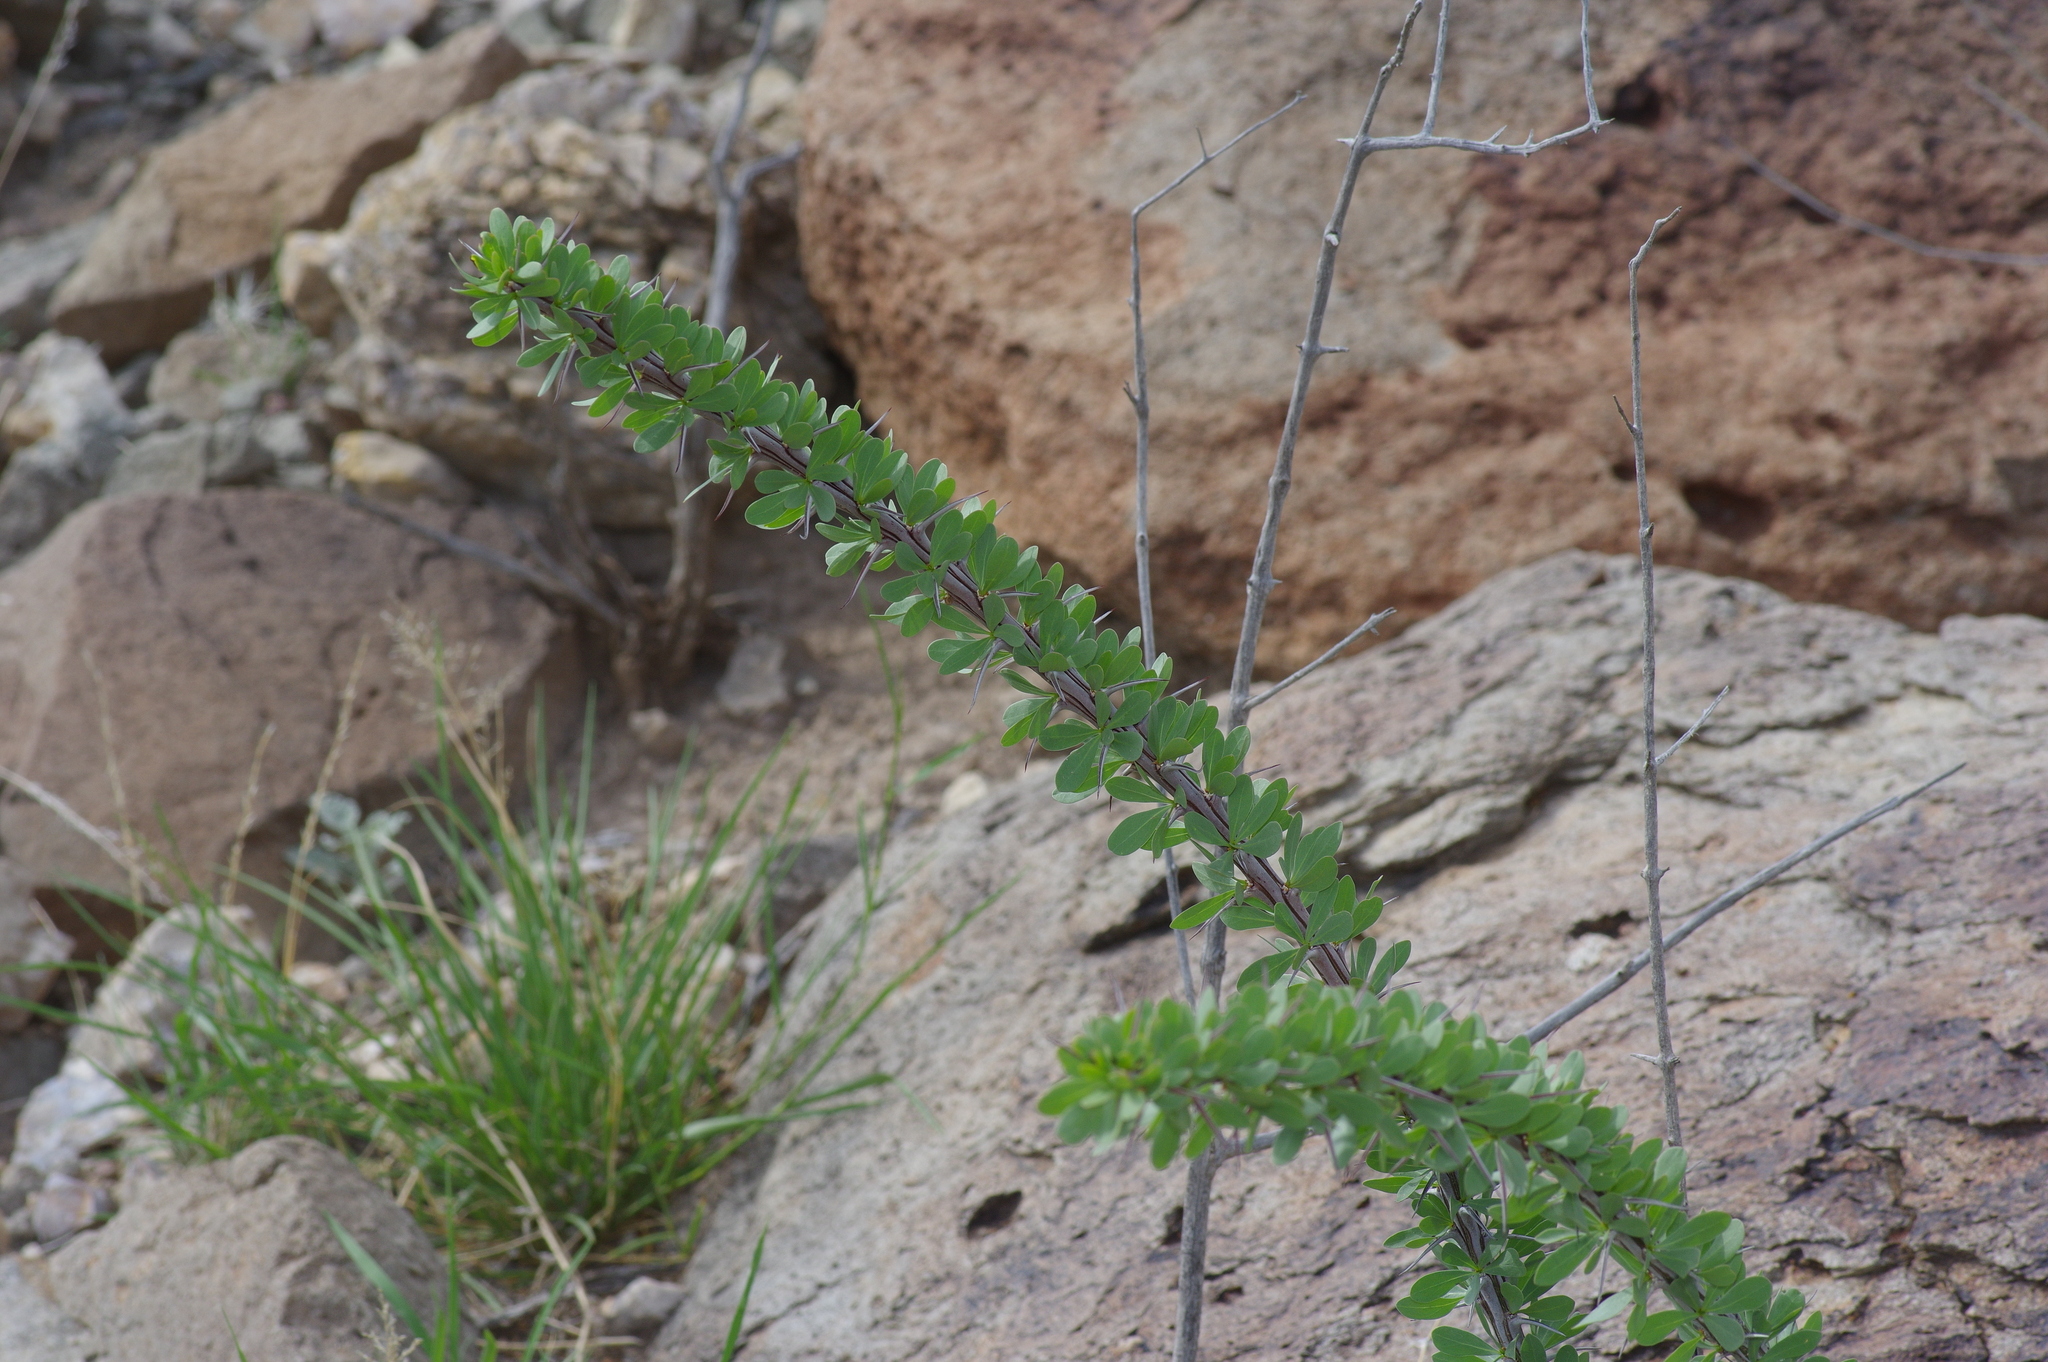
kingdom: Plantae
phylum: Tracheophyta
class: Magnoliopsida
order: Ericales
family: Fouquieriaceae
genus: Fouquieria
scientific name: Fouquieria splendens
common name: Vine-cactus
